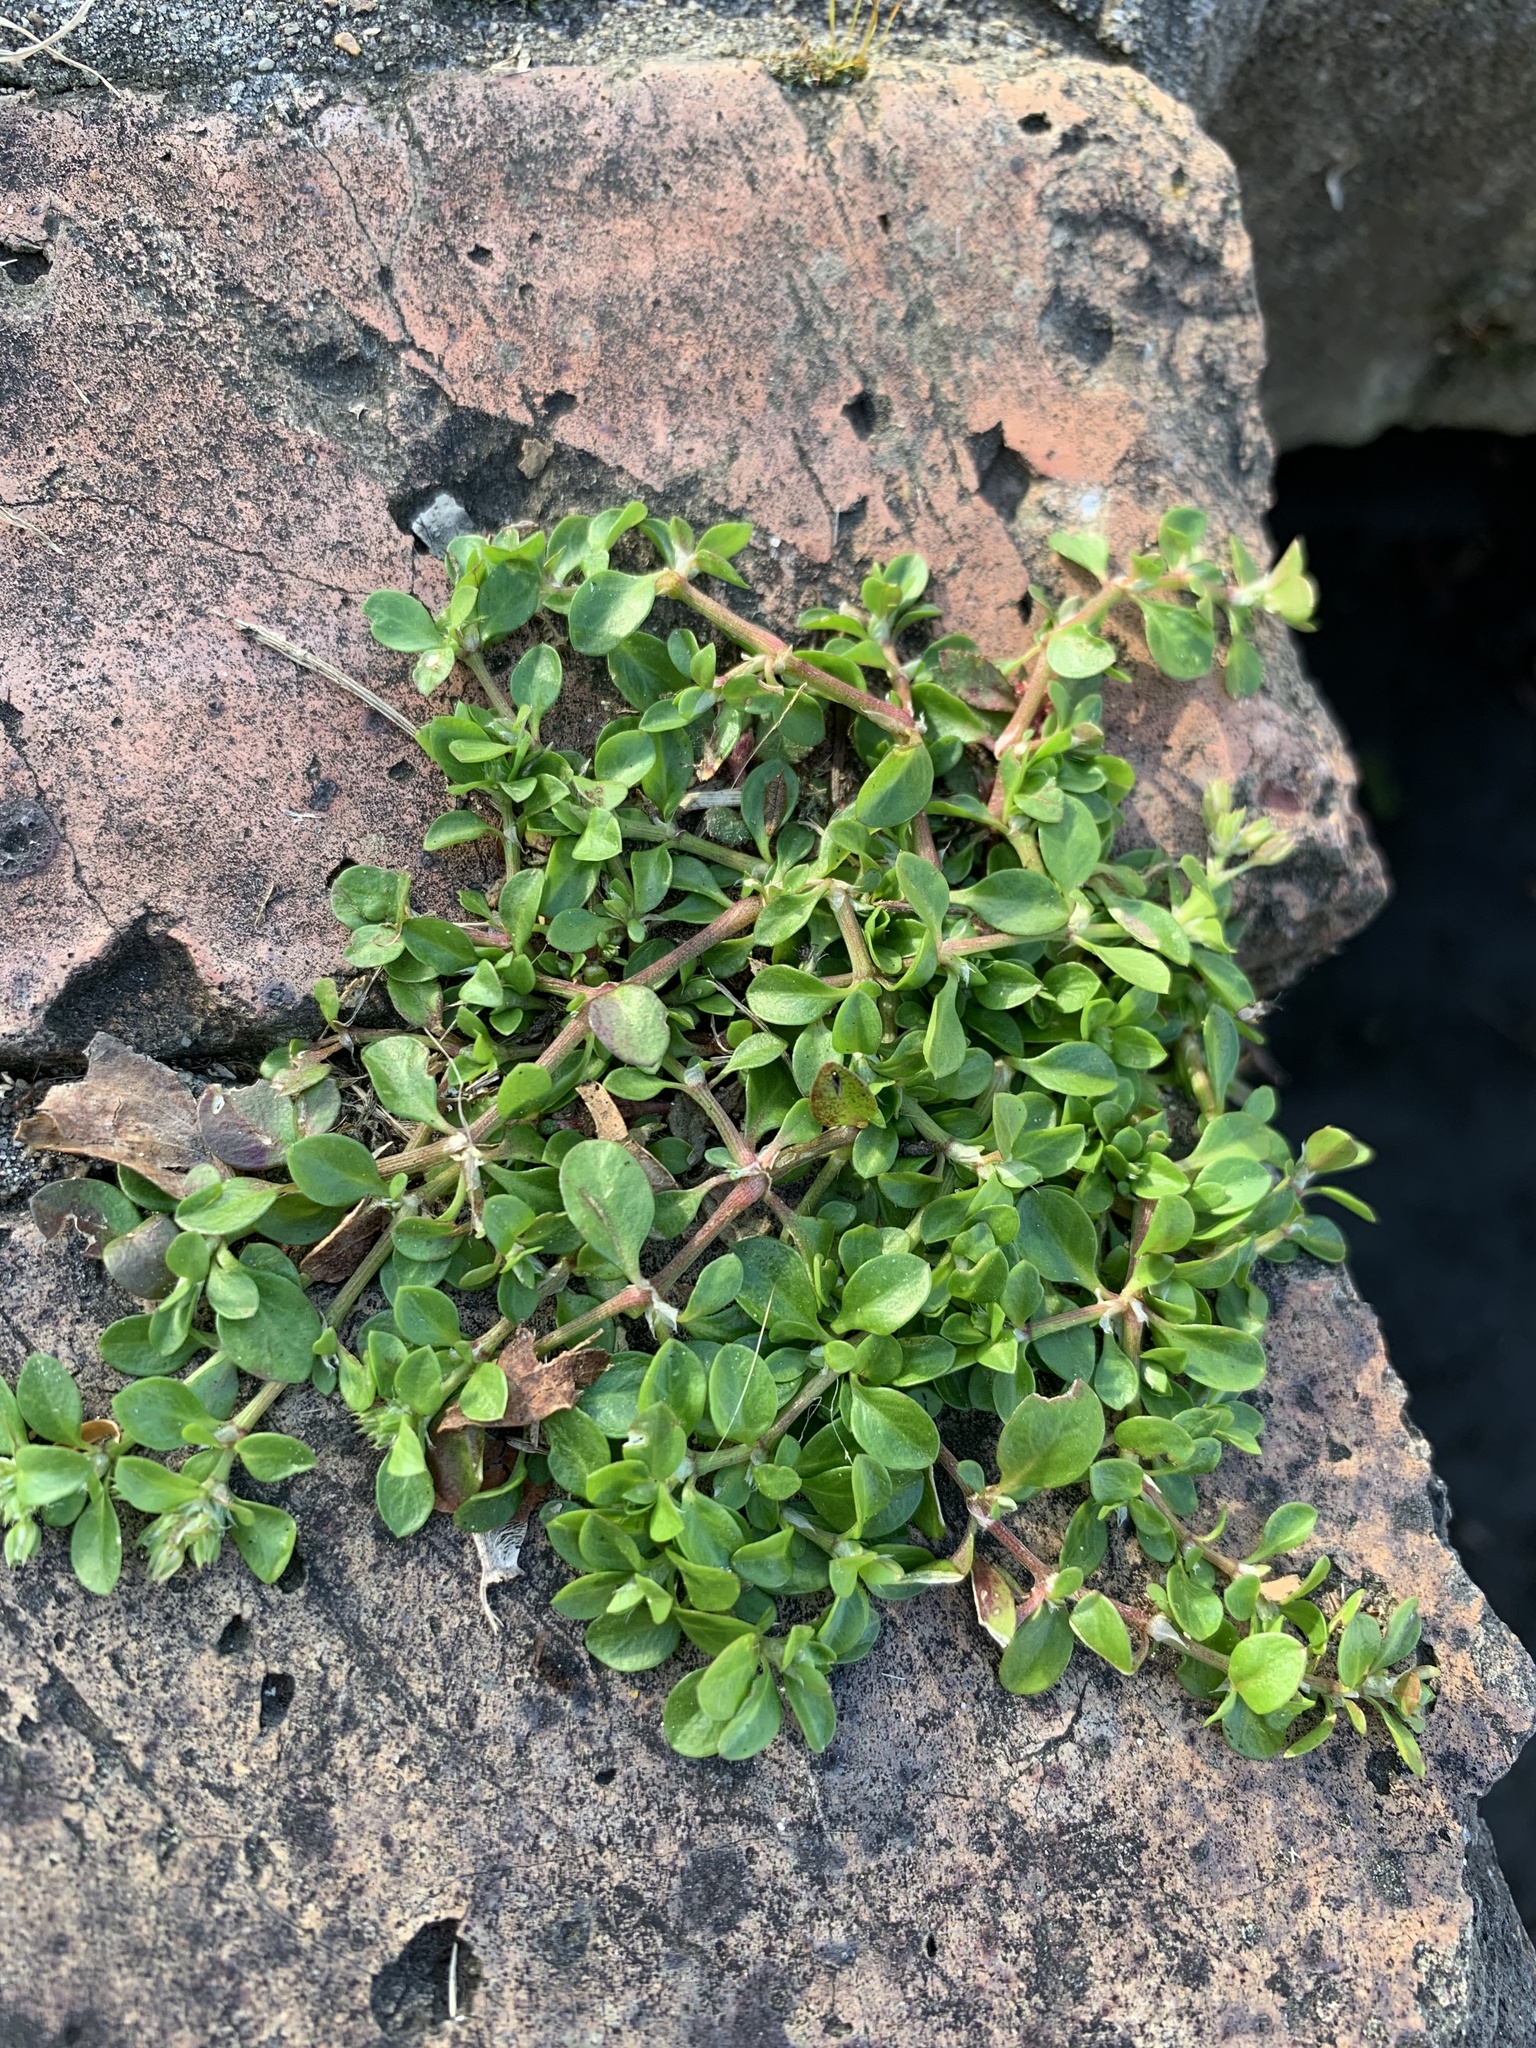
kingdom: Plantae
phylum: Tracheophyta
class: Magnoliopsida
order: Caryophyllales
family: Caryophyllaceae
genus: Polycarpon
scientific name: Polycarpon tetraphyllum
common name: Four-leaved all-seed
